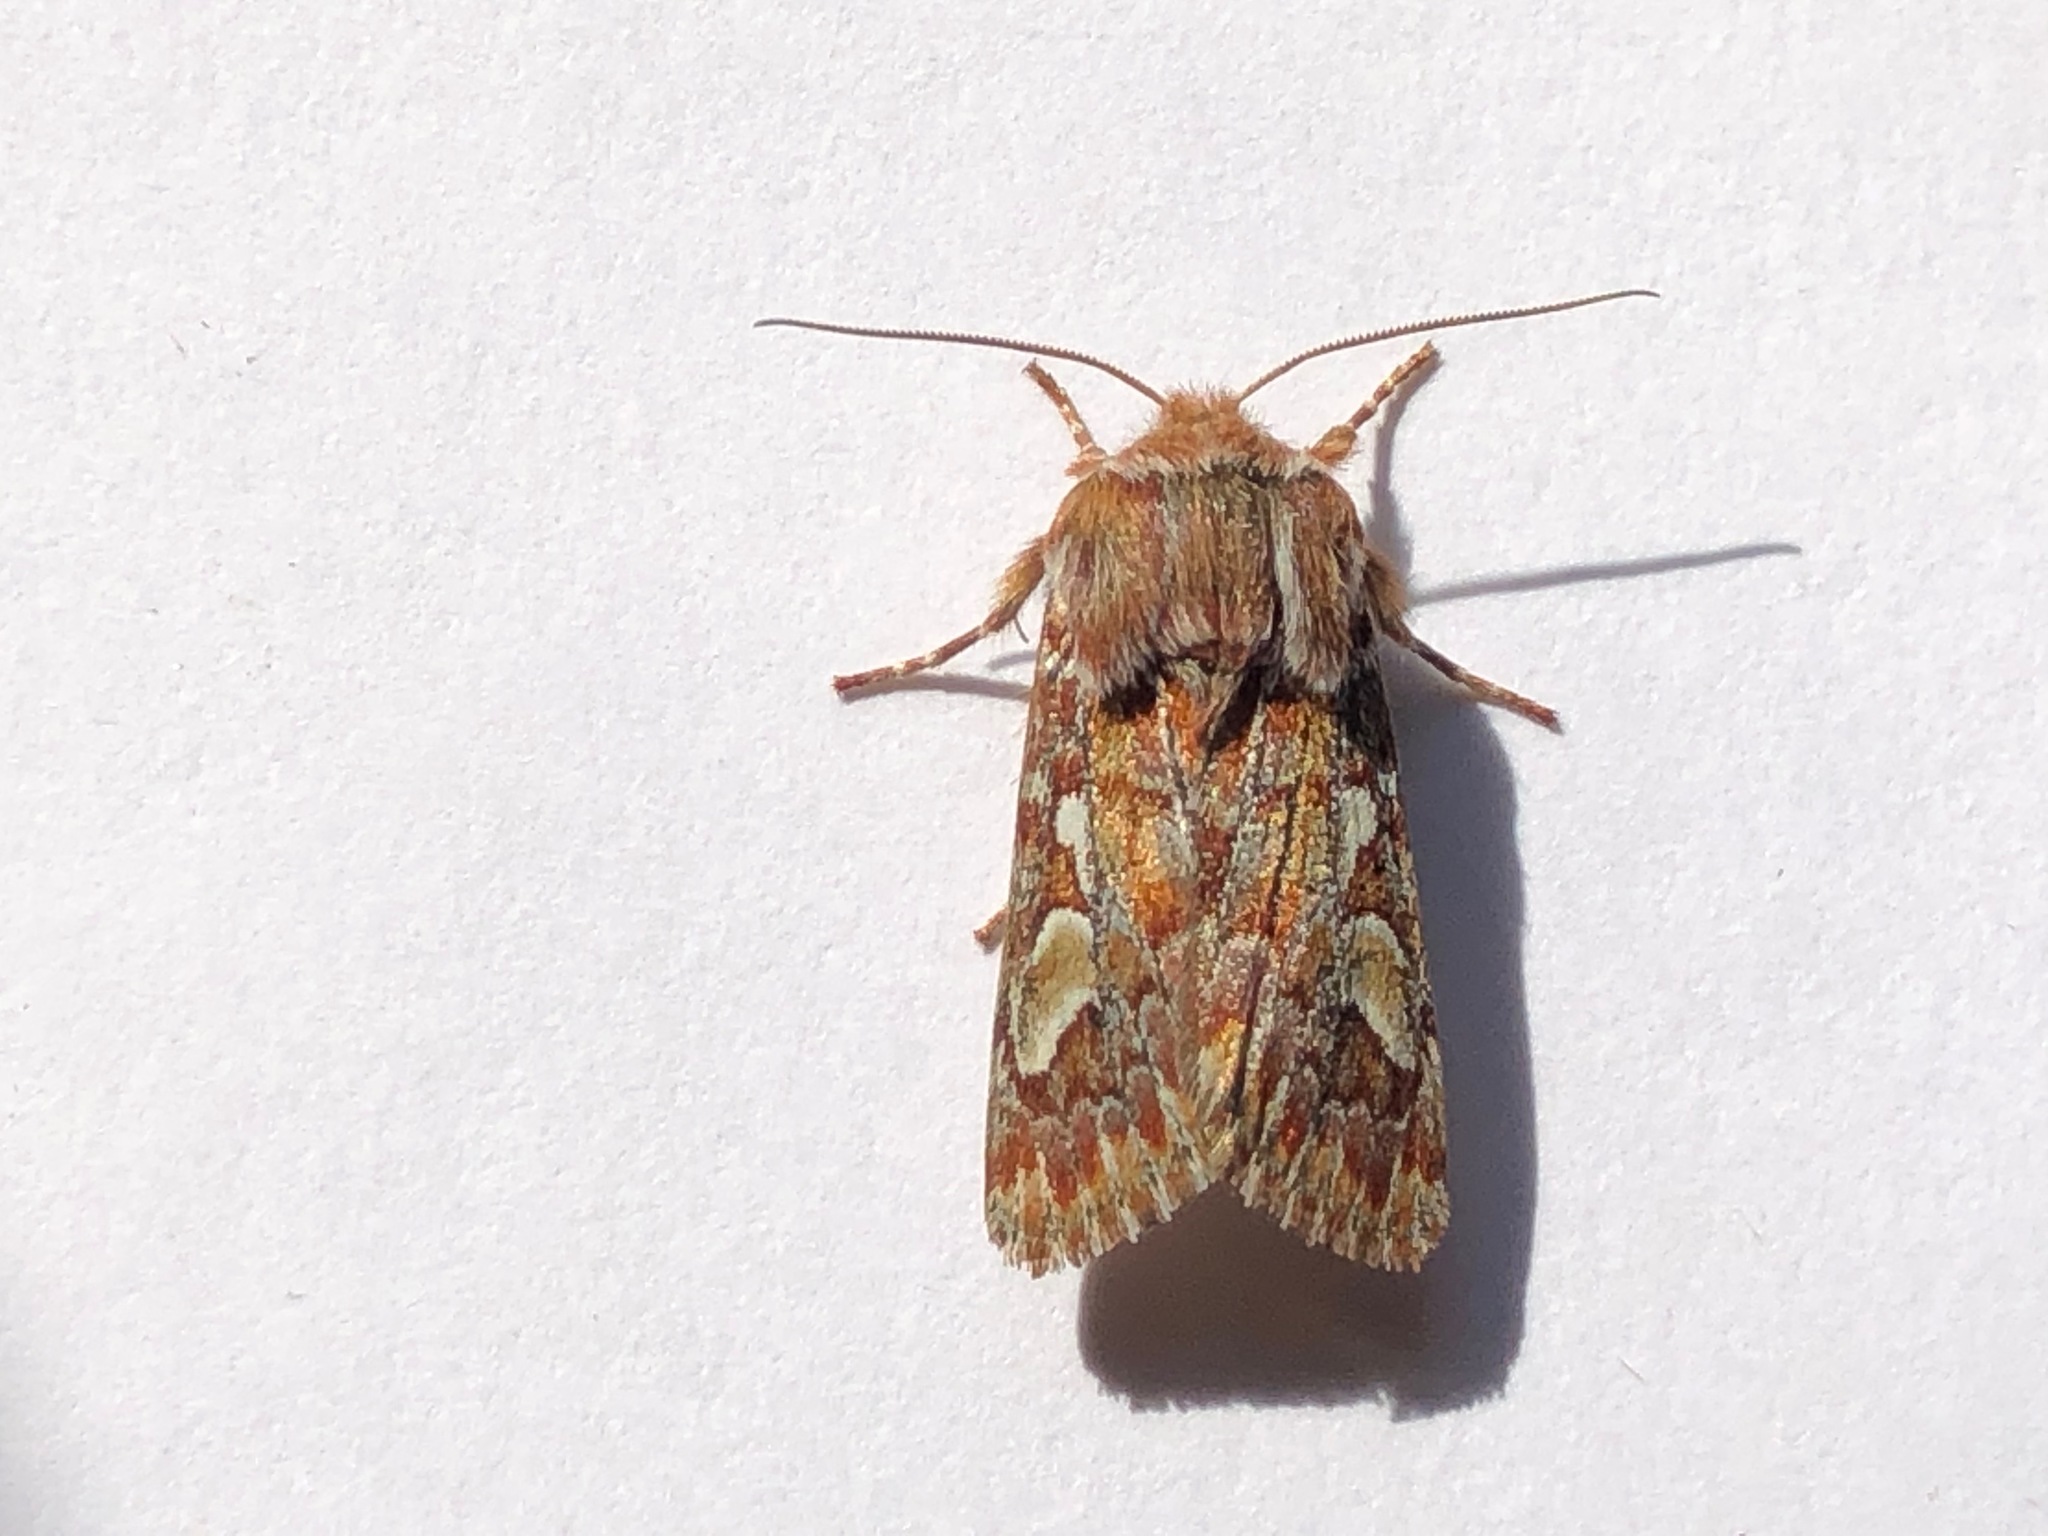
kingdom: Animalia
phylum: Arthropoda
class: Insecta
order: Lepidoptera
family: Noctuidae
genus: Panolis
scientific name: Panolis flammea
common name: Pine beauty
